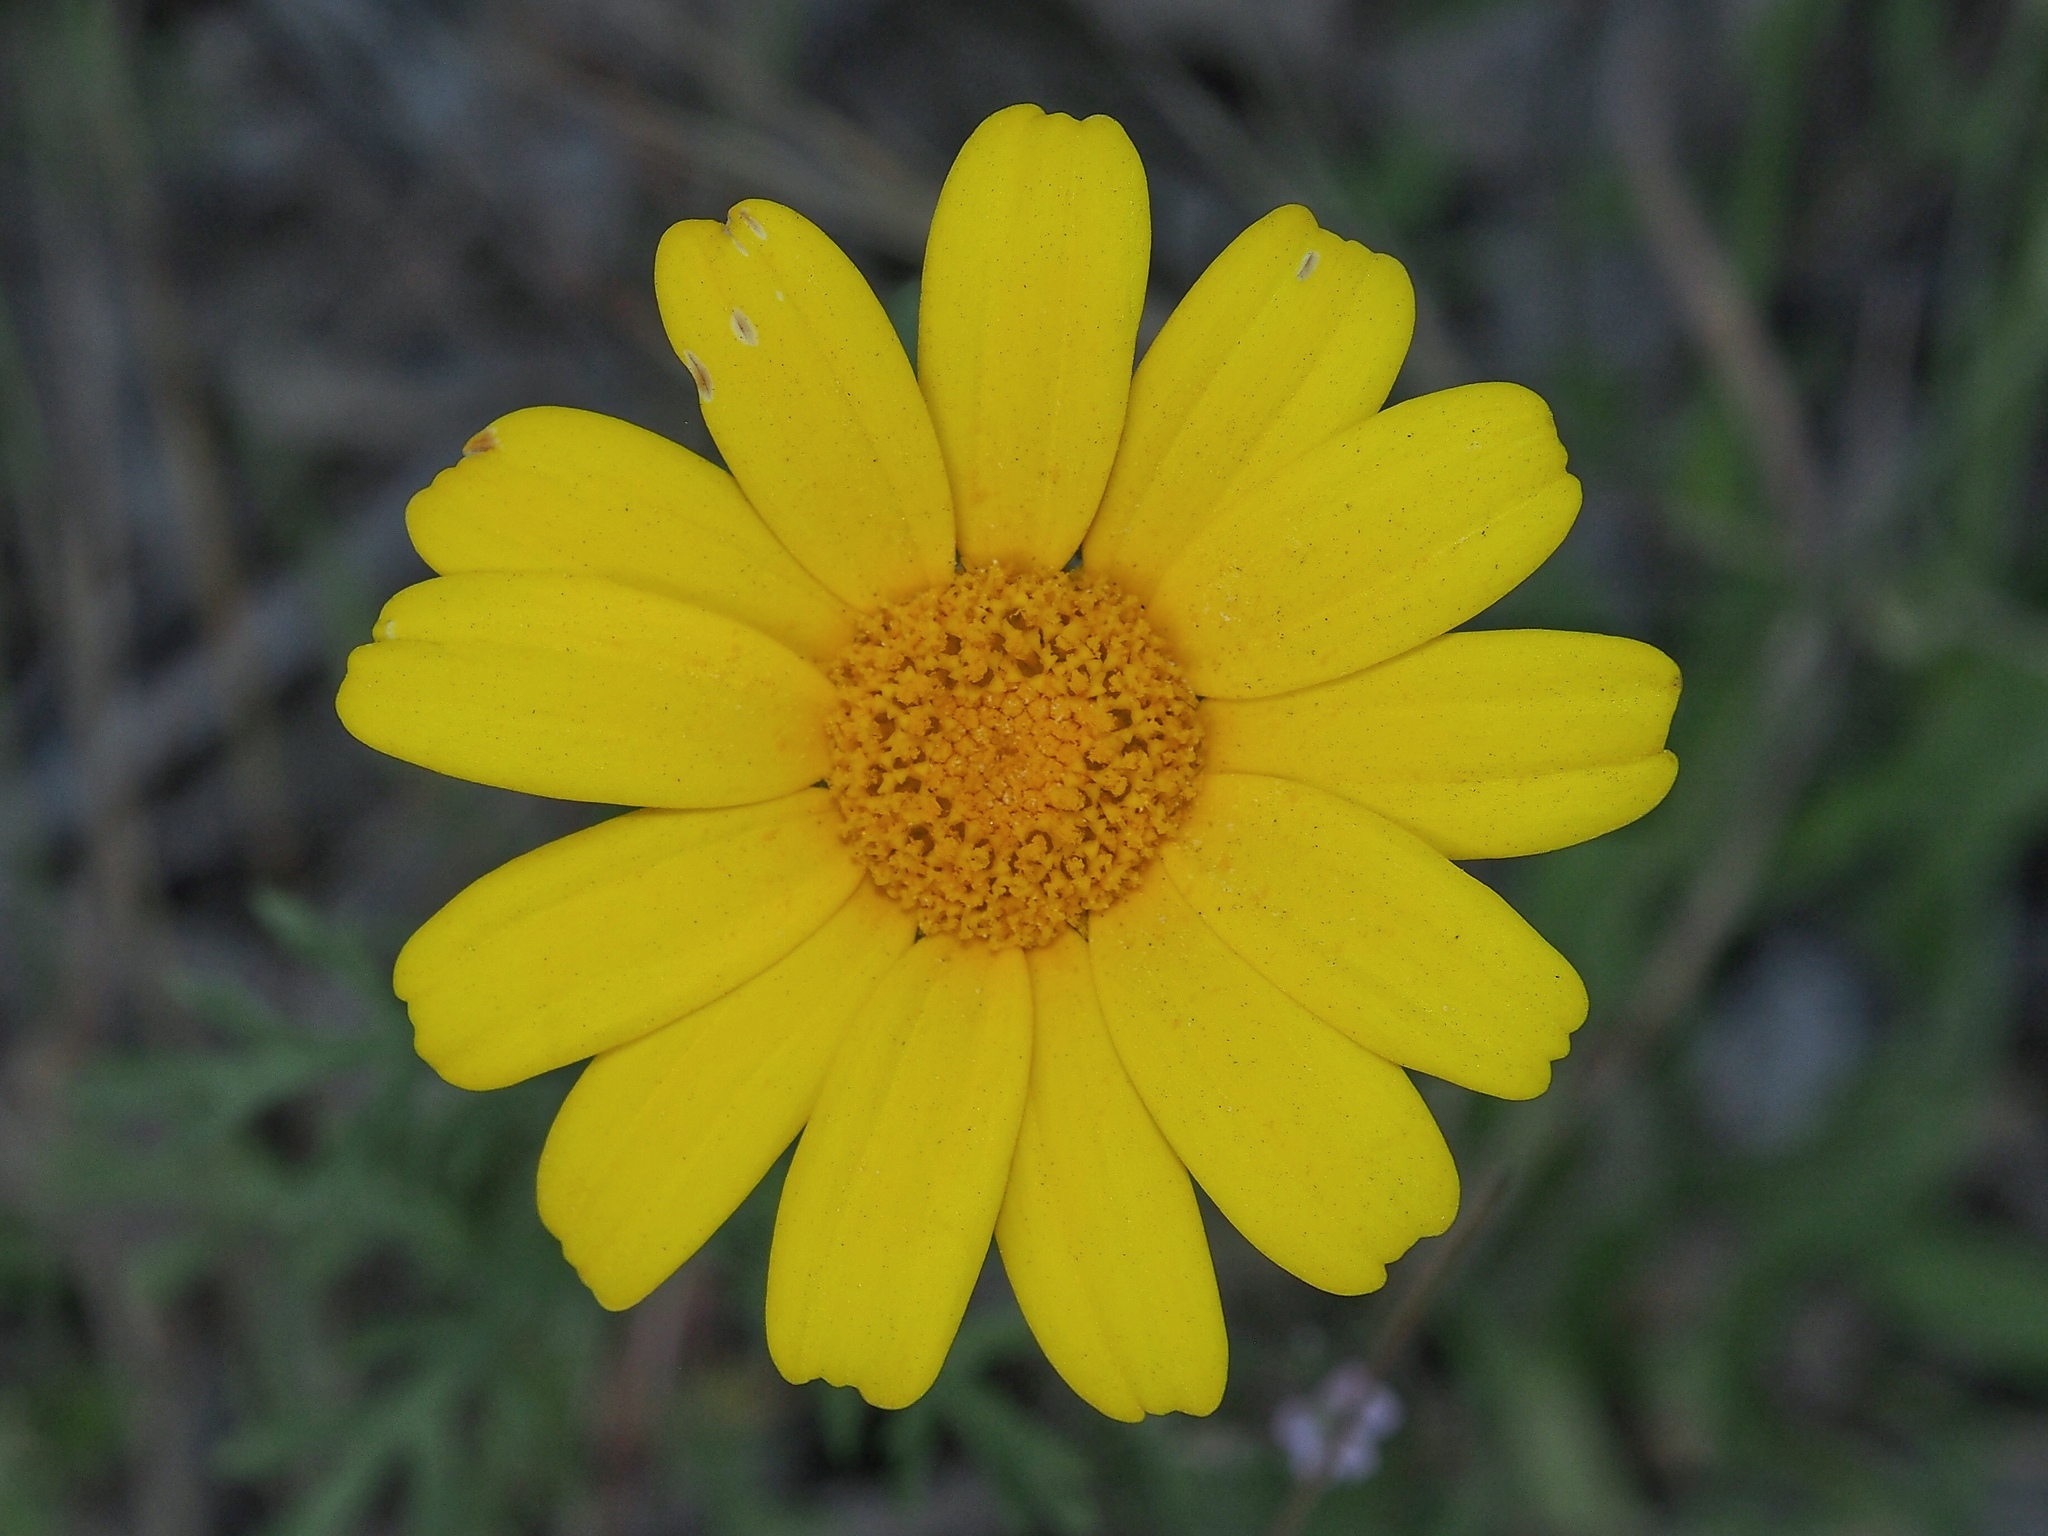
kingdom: Plantae
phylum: Tracheophyta
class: Magnoliopsida
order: Asterales
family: Asteraceae
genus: Glebionis
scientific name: Glebionis coronaria
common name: Crowndaisy
